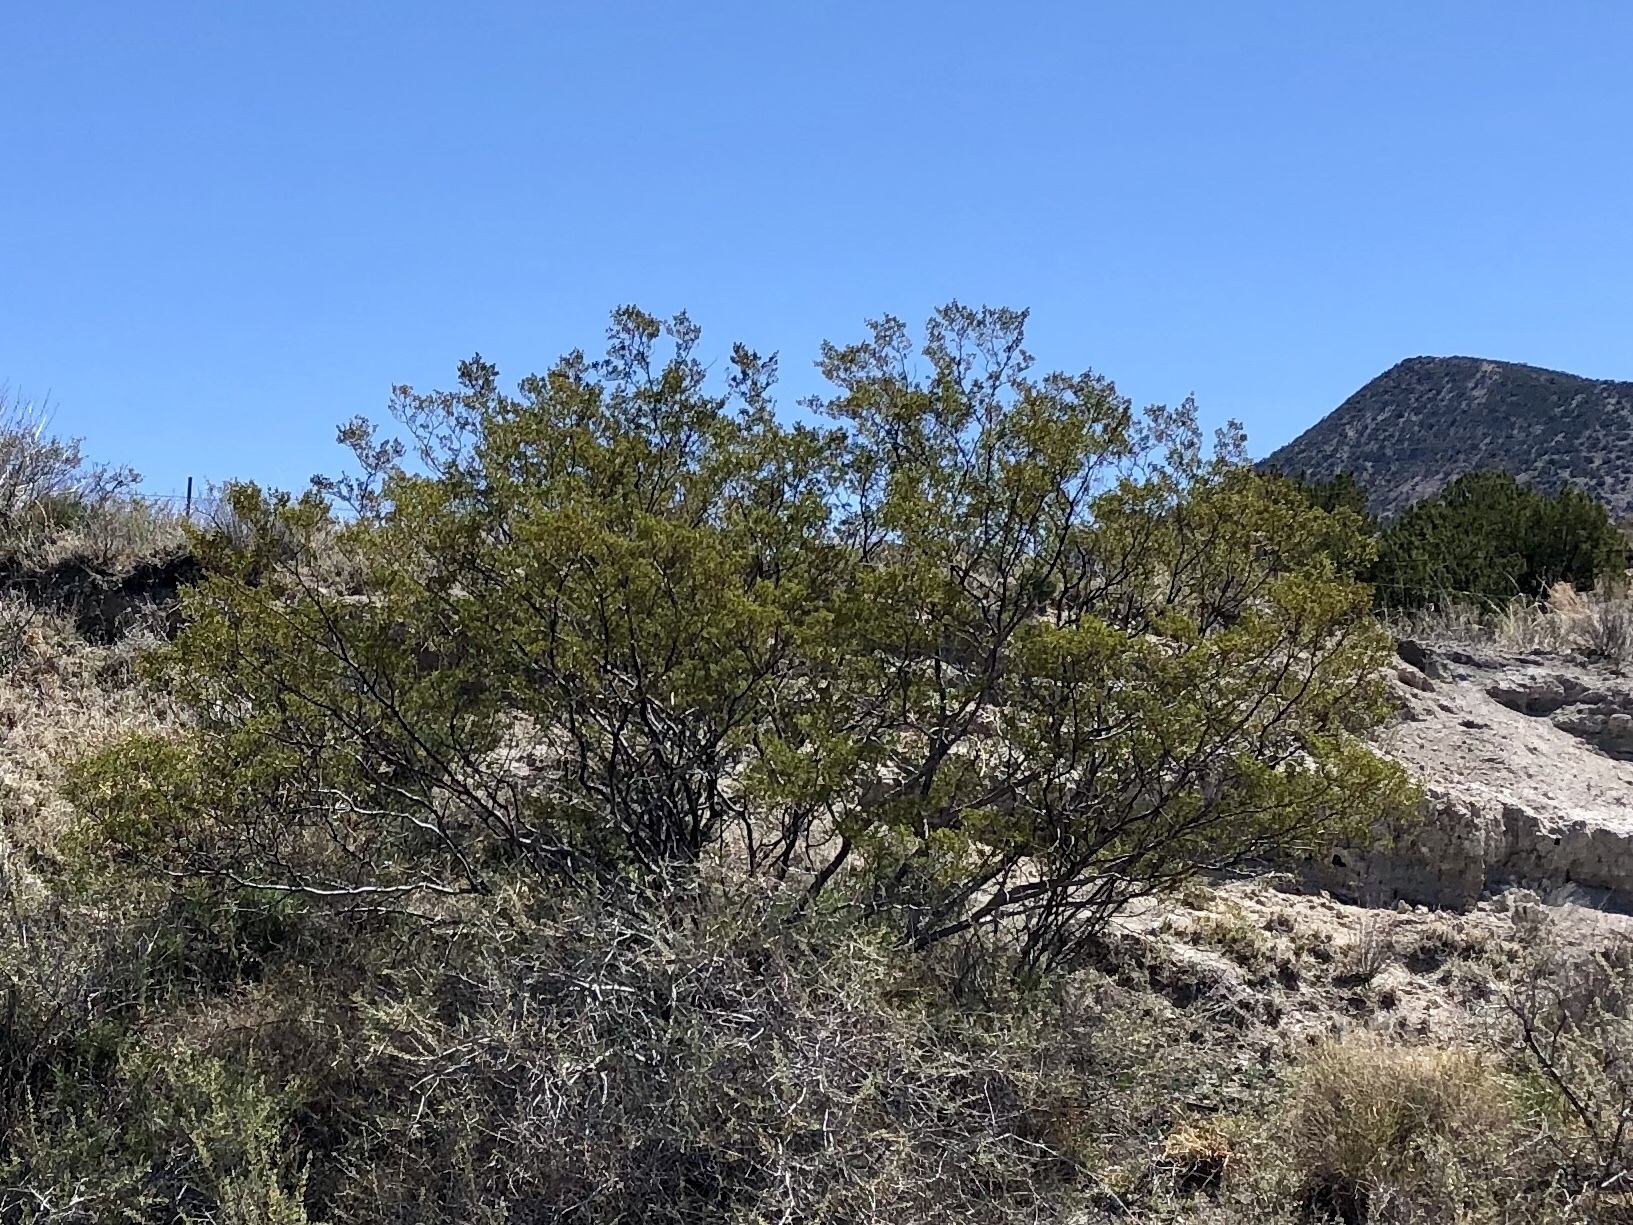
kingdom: Plantae
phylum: Tracheophyta
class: Magnoliopsida
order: Zygophyllales
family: Zygophyllaceae
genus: Larrea
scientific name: Larrea tridentata
